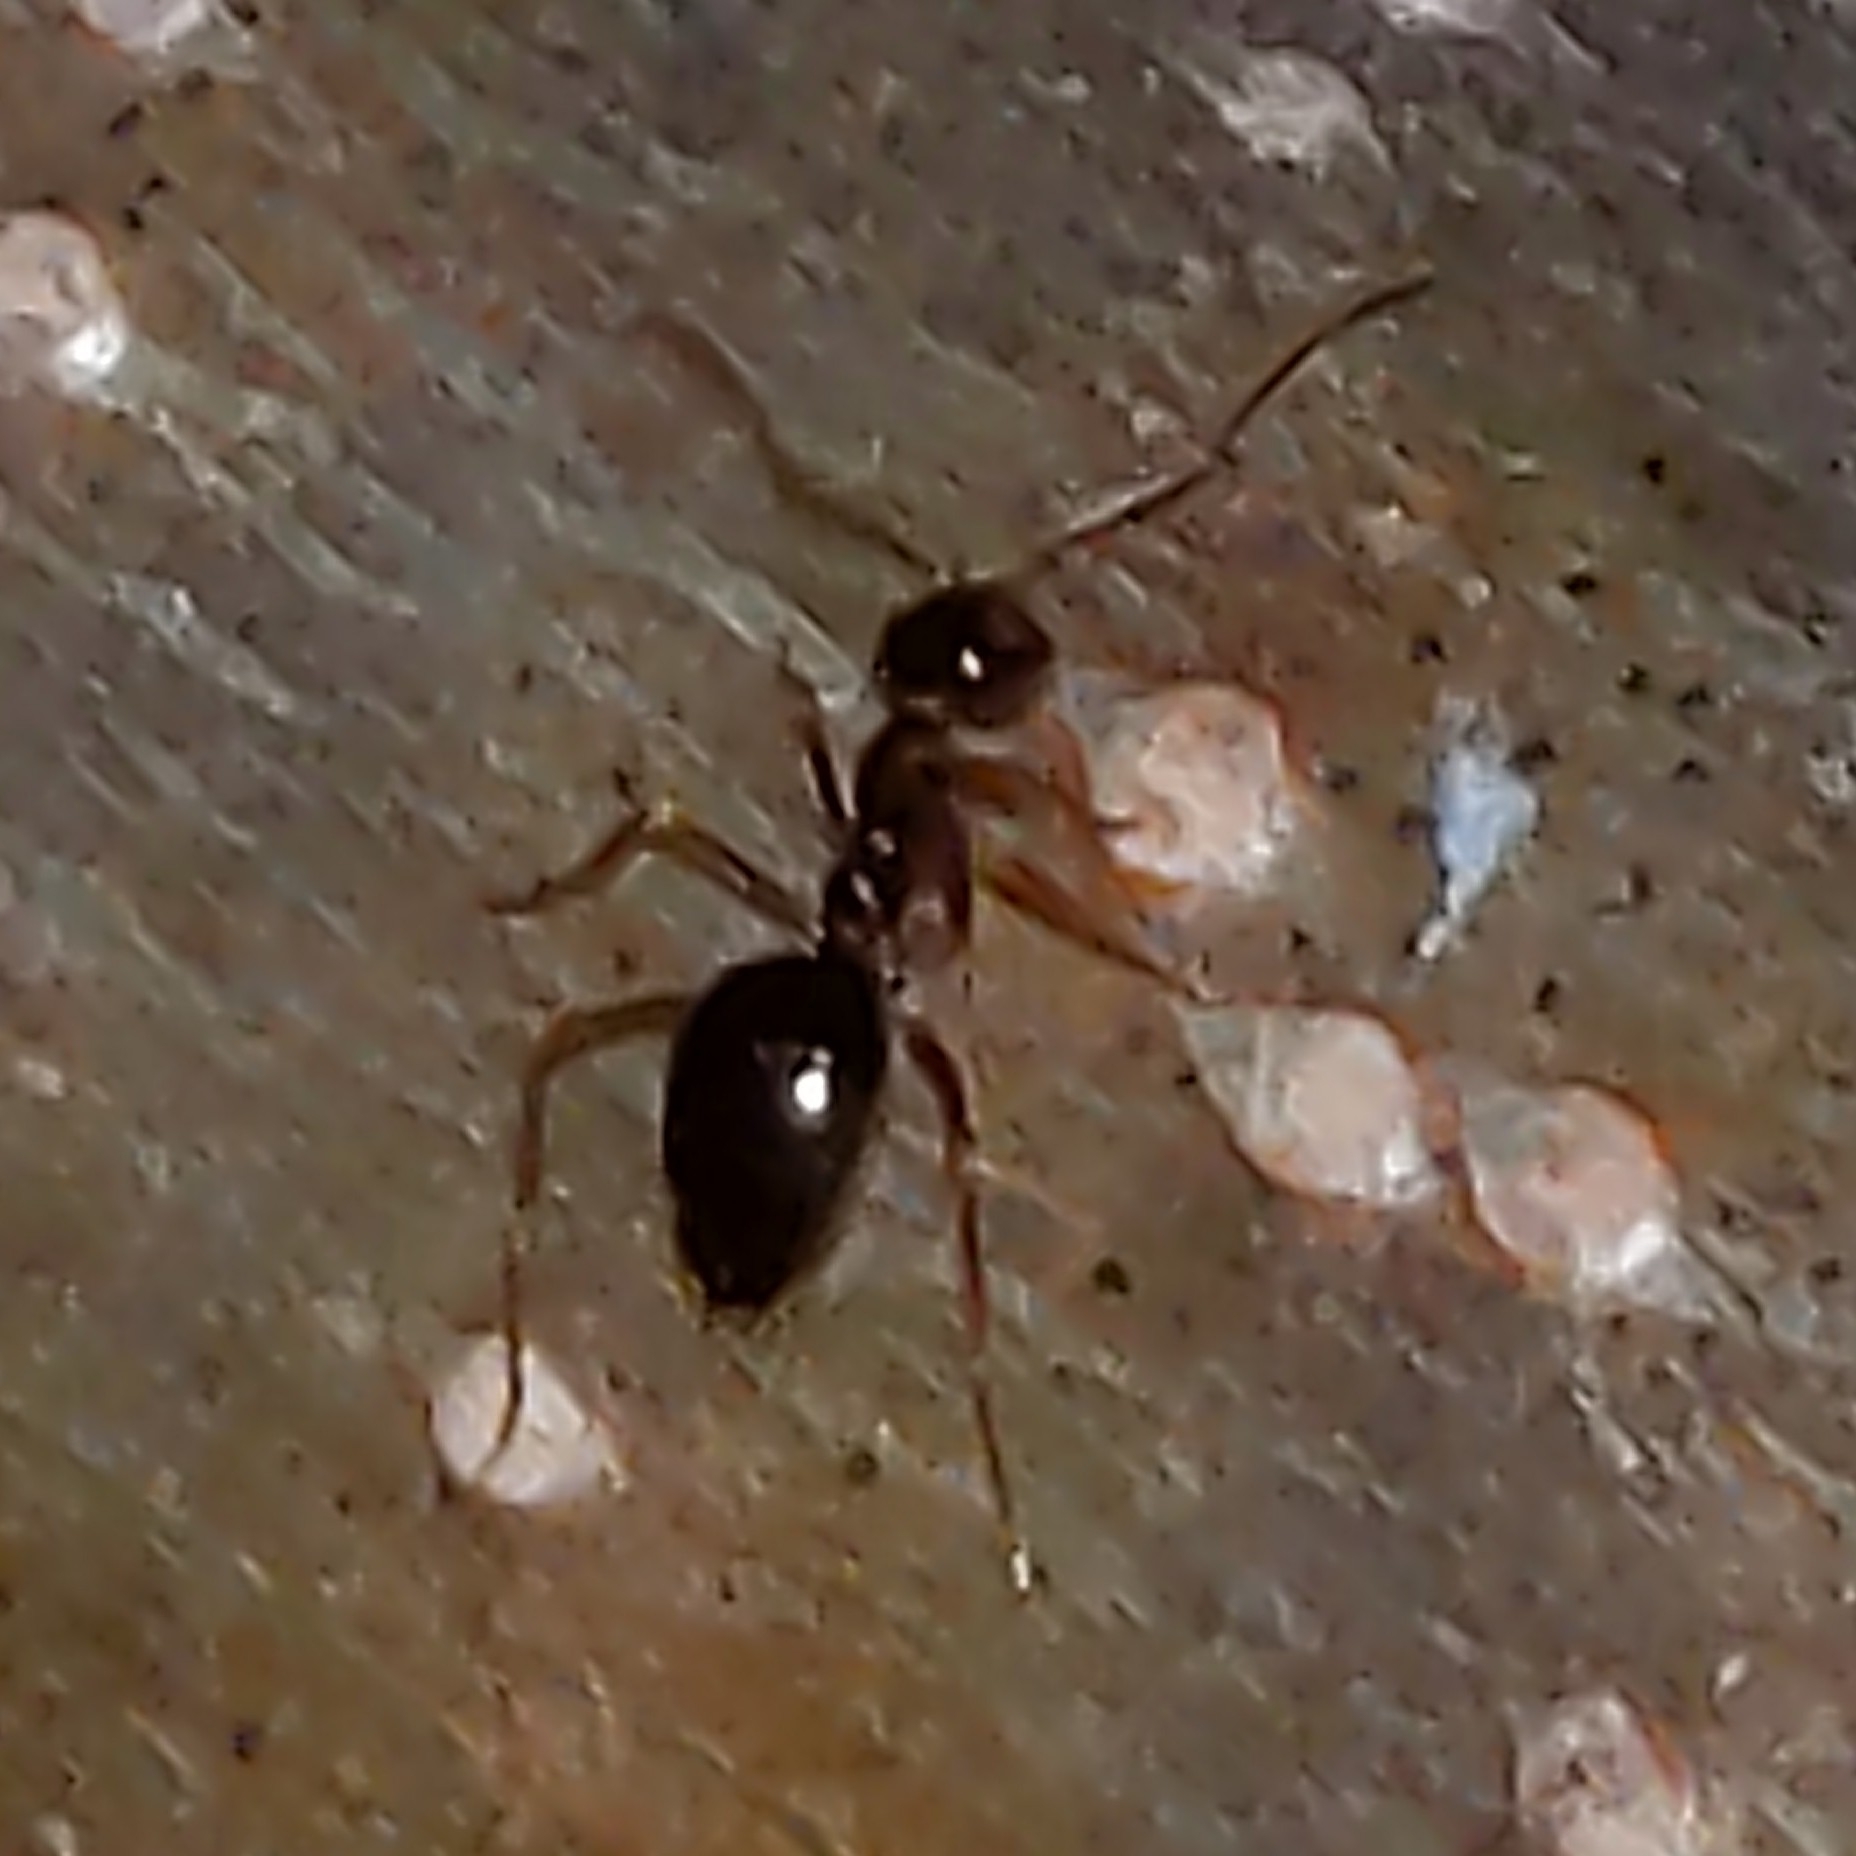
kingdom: Animalia
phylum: Arthropoda
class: Insecta
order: Hymenoptera
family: Formicidae
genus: Prenolepis
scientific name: Prenolepis imparis
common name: Small honey ant
